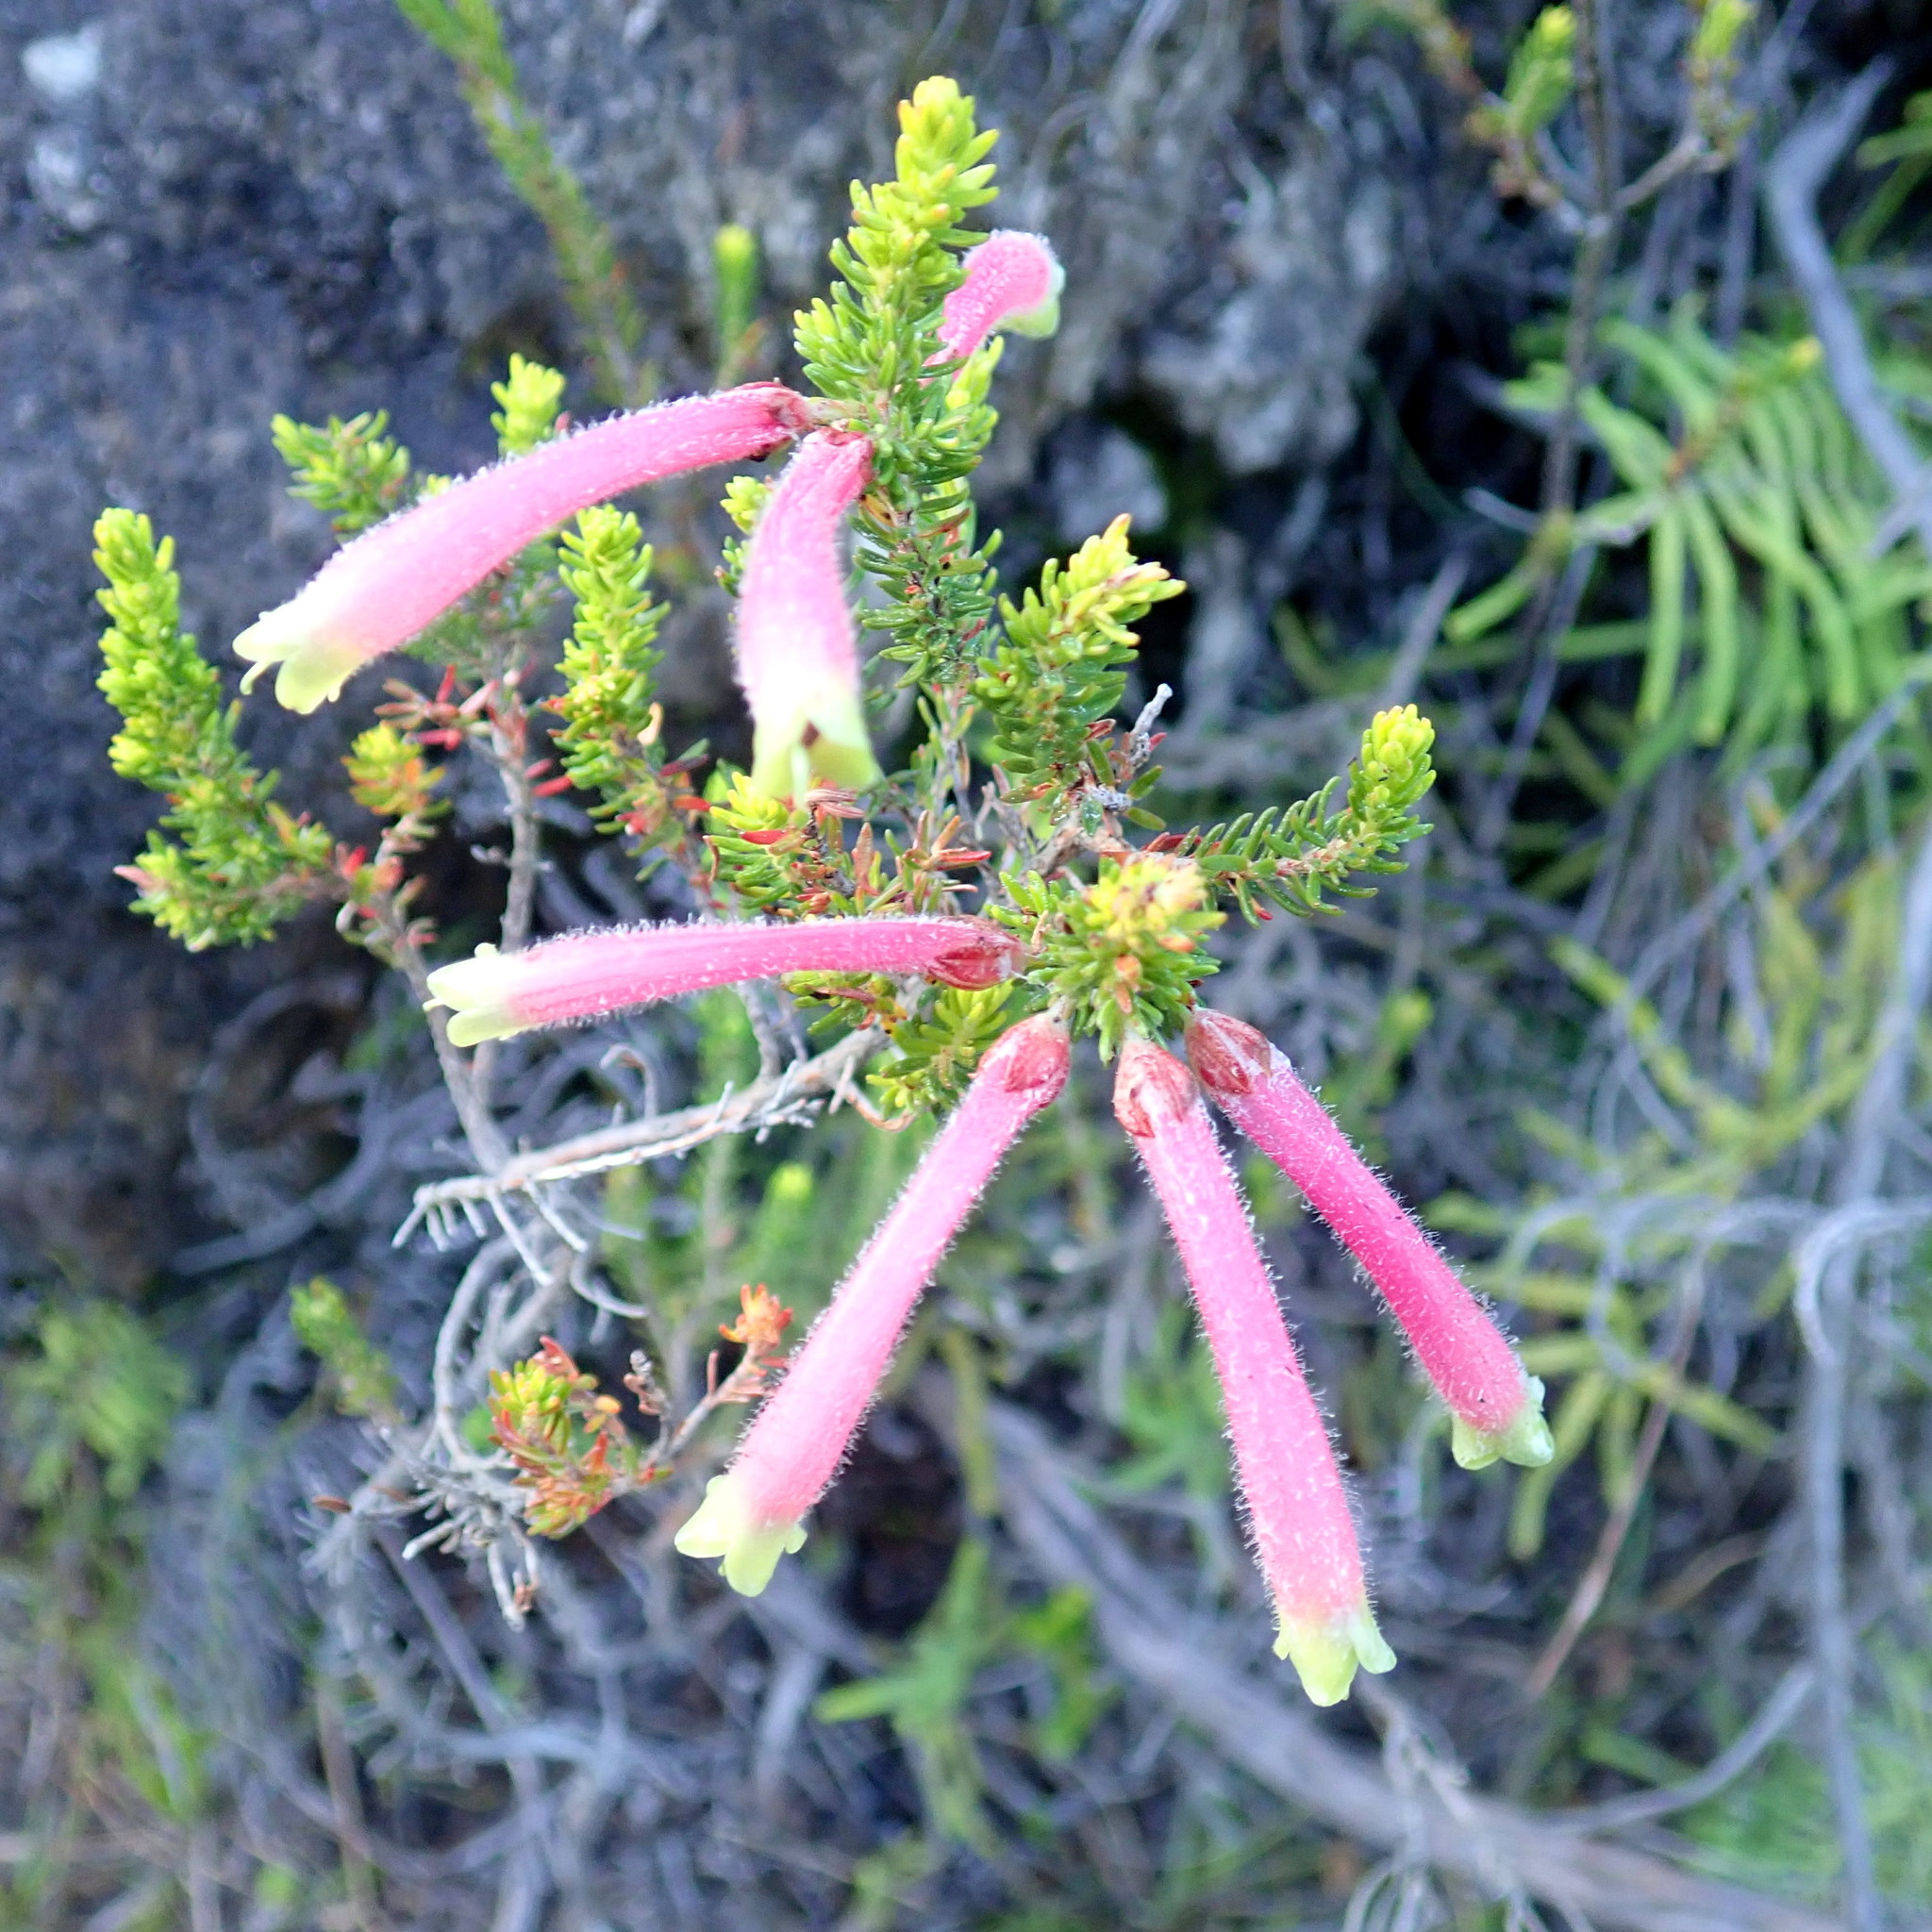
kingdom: Plantae
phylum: Tracheophyta
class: Magnoliopsida
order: Ericales
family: Ericaceae
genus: Erica
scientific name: Erica densifolia
